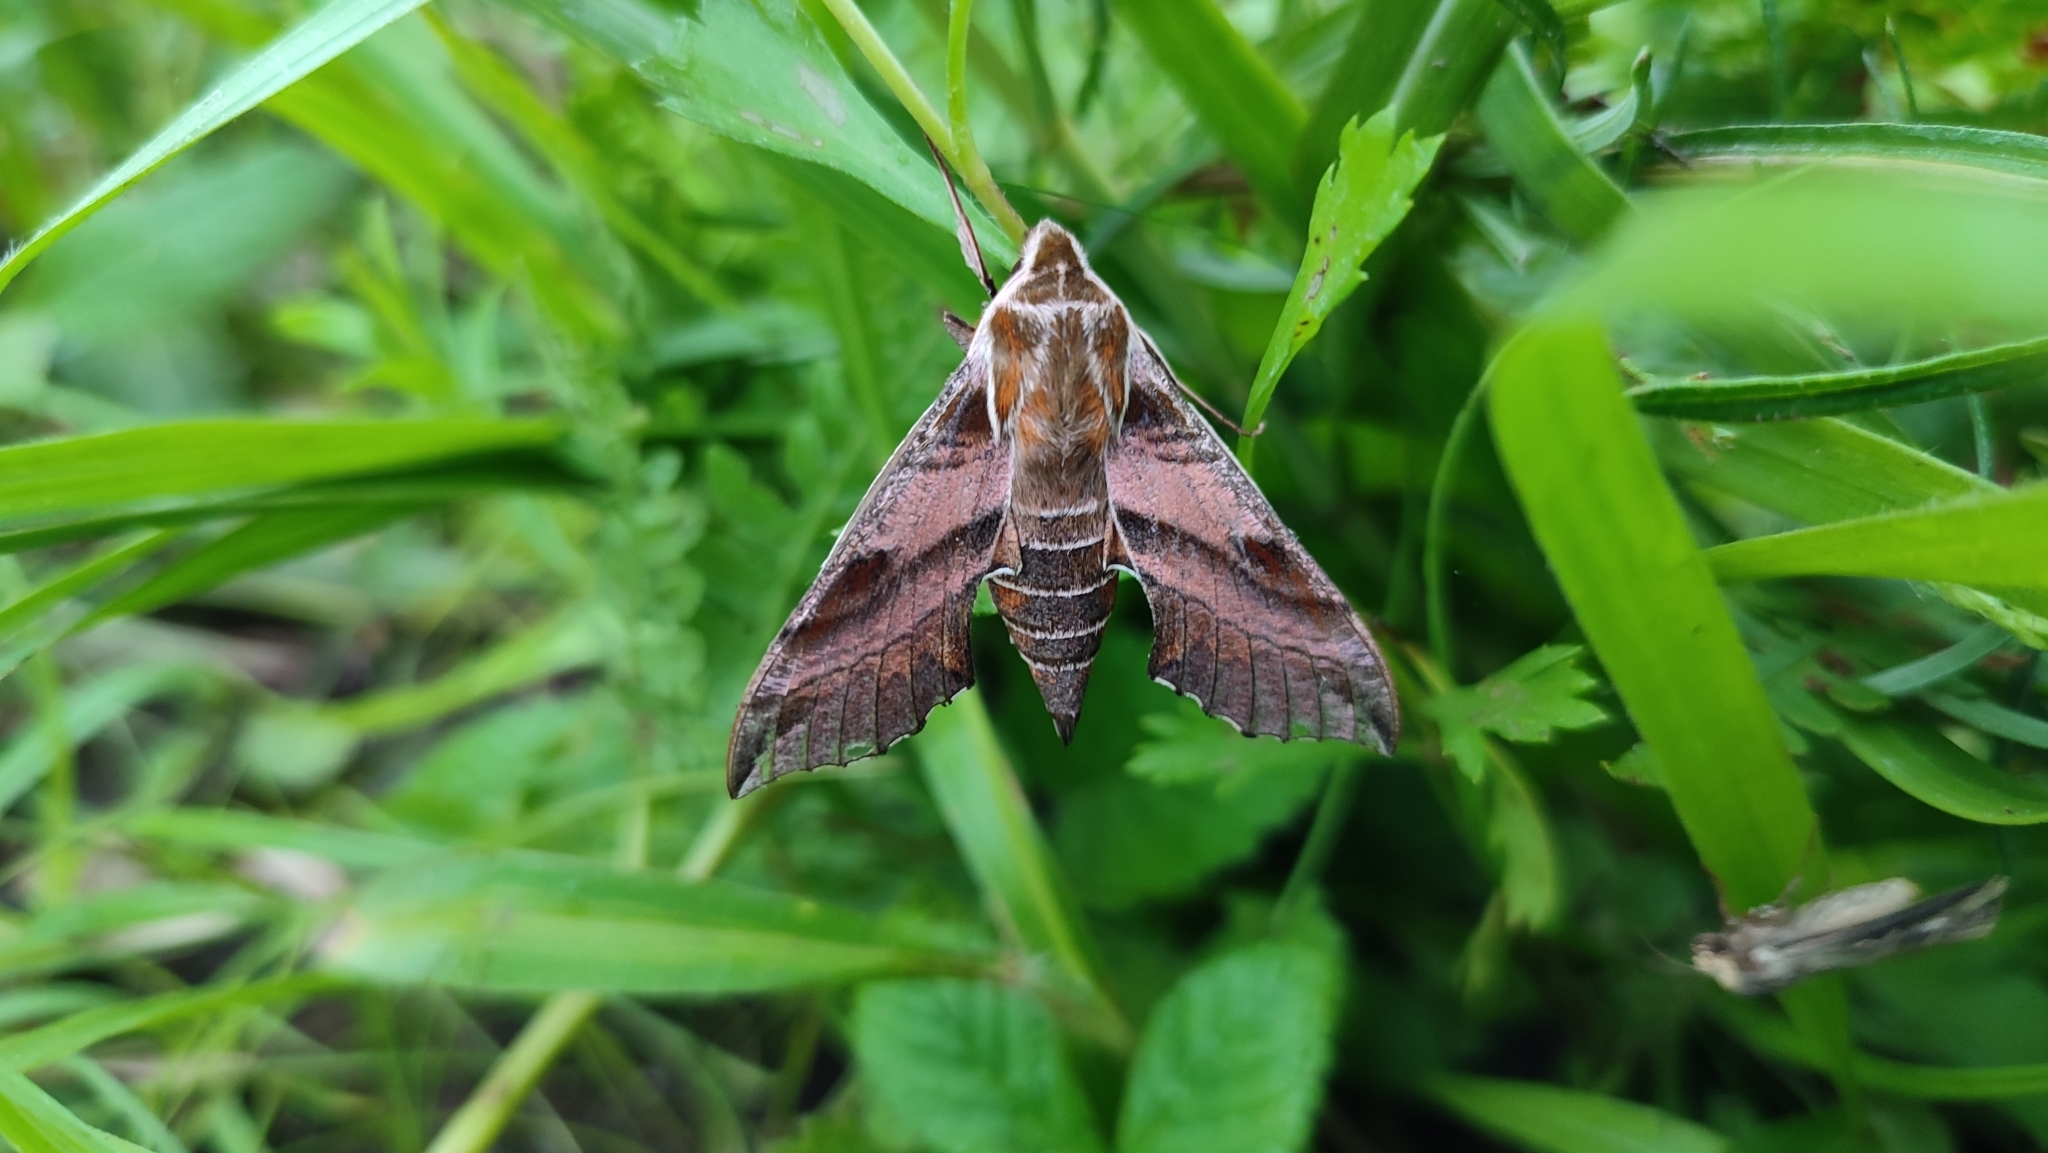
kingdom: Animalia
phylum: Arthropoda
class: Insecta
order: Lepidoptera
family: Sphingidae
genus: Deilephila
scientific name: Deilephila askoldensis
